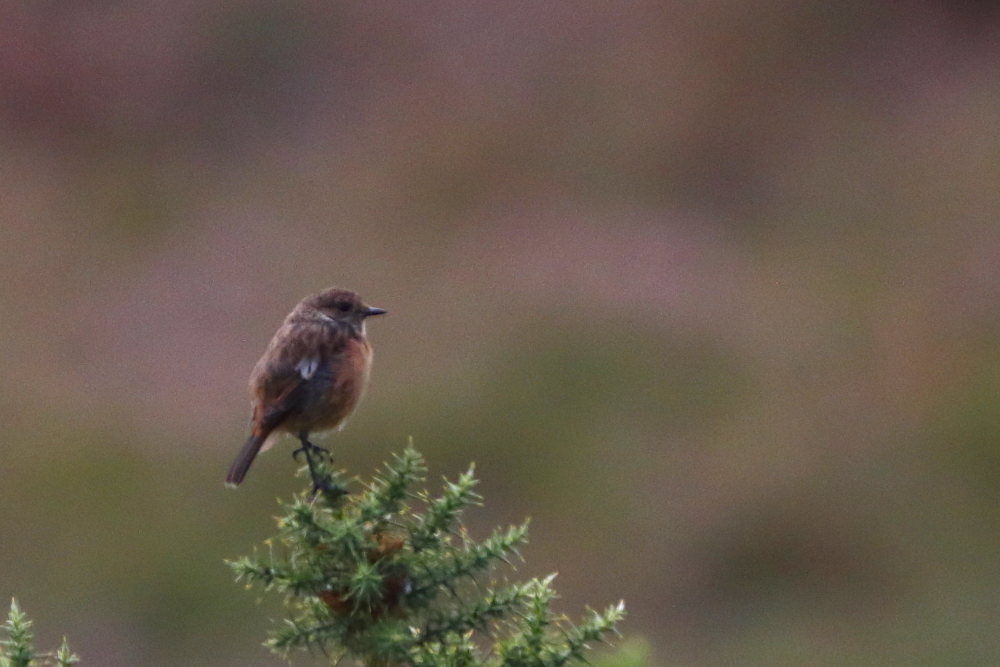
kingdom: Animalia
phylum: Chordata
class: Aves
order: Passeriformes
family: Muscicapidae
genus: Saxicola
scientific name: Saxicola rubicola
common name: European stonechat
